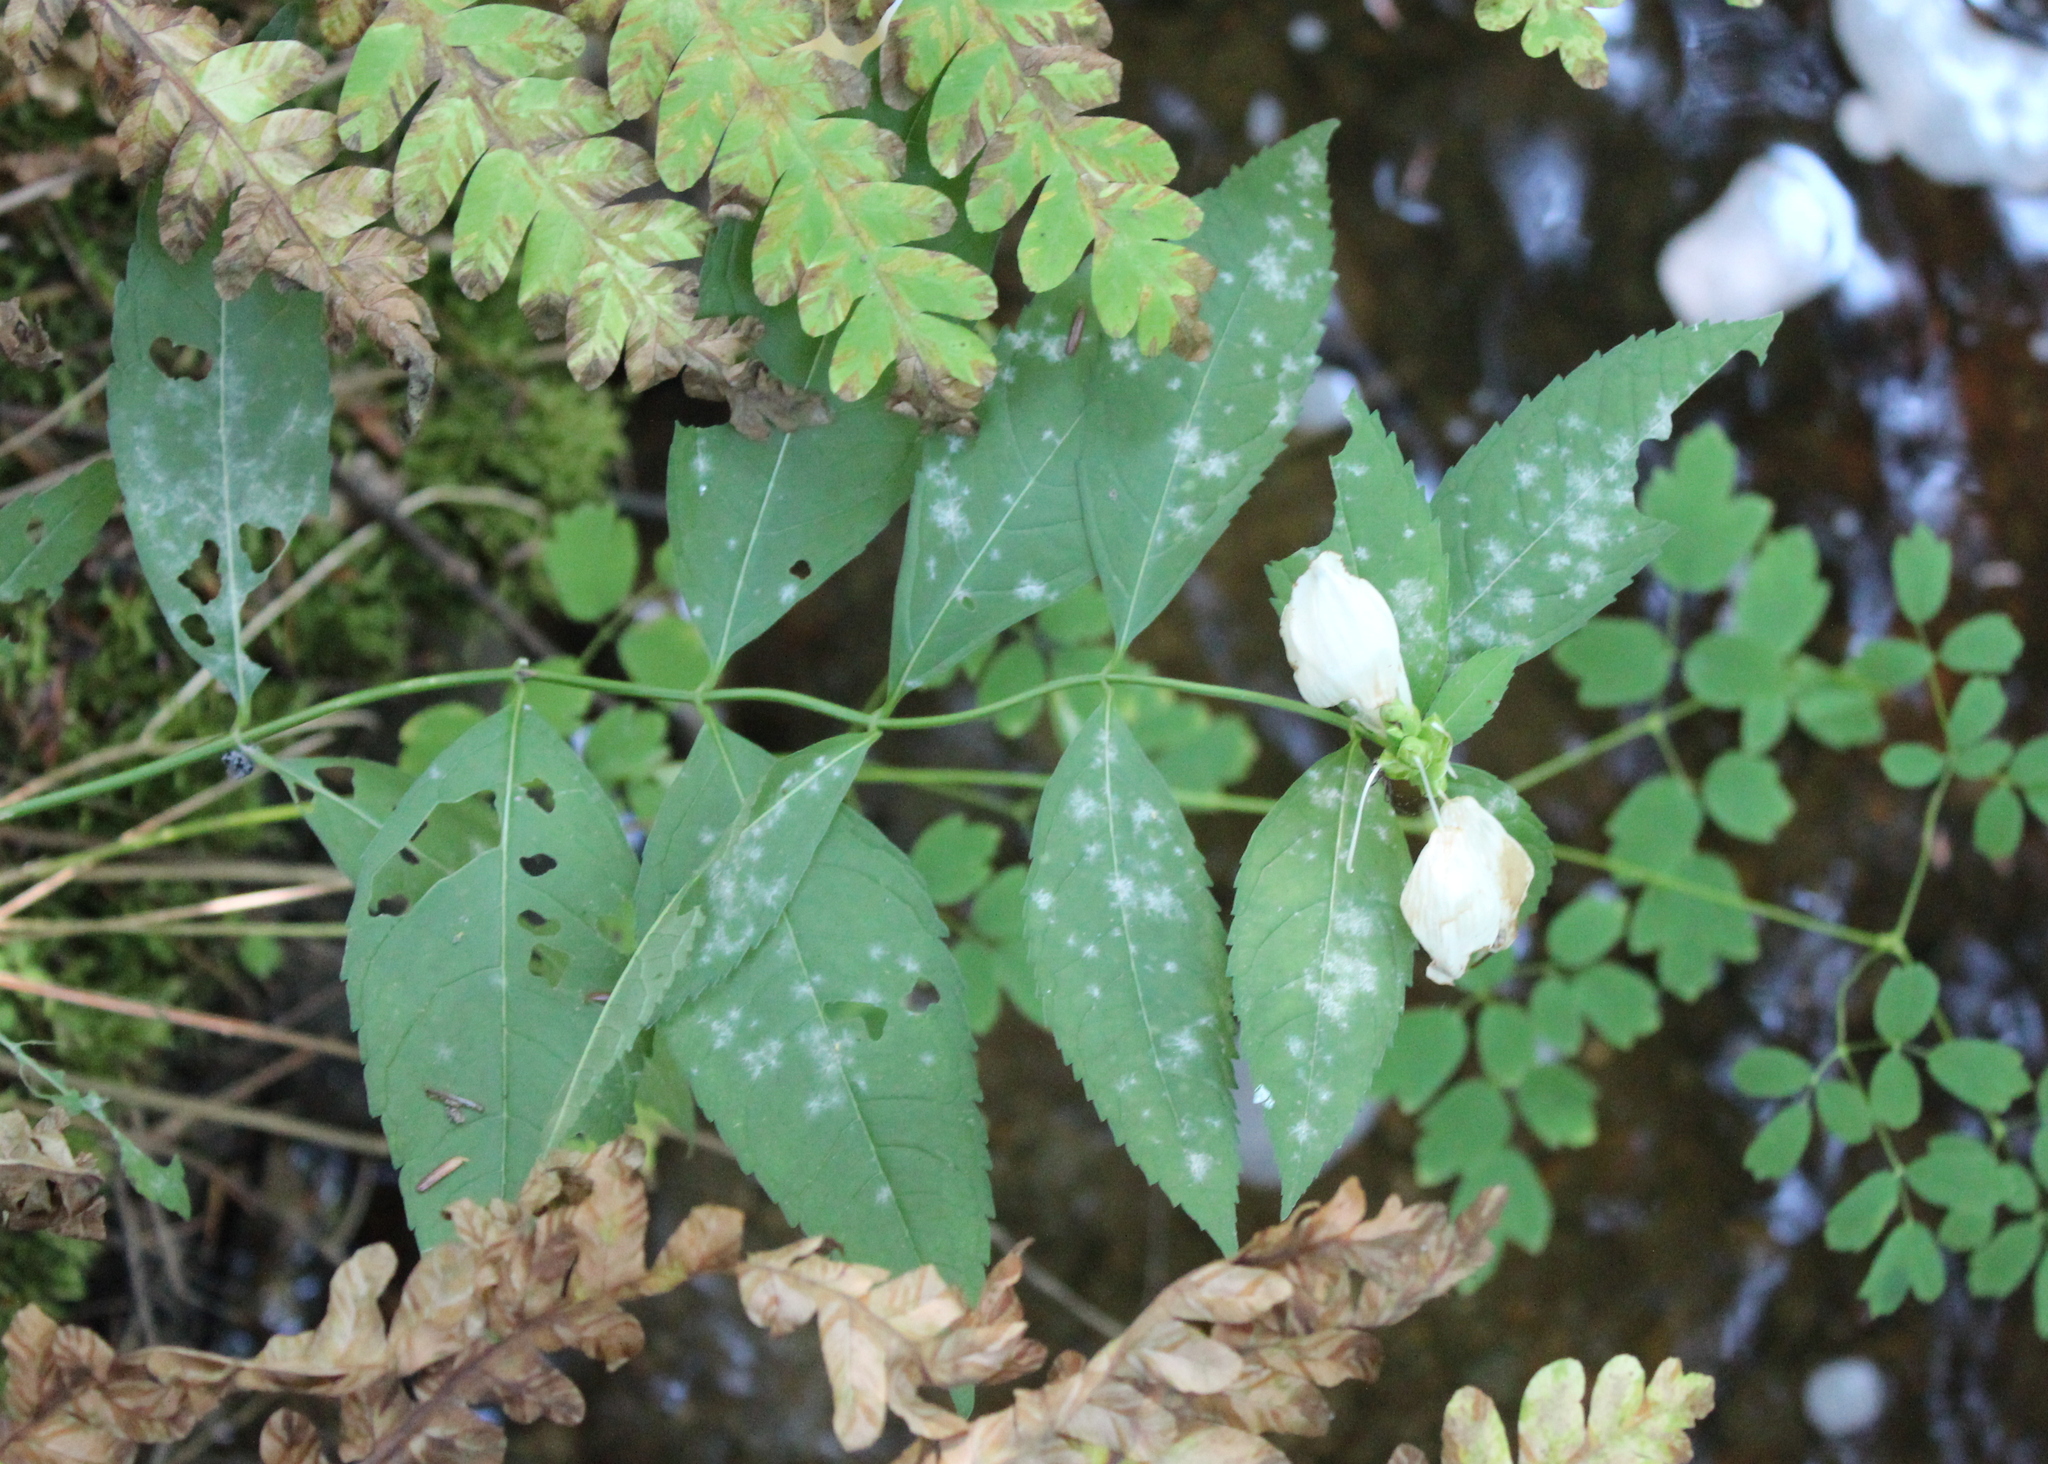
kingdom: Plantae
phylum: Tracheophyta
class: Magnoliopsida
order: Lamiales
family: Plantaginaceae
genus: Chelone
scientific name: Chelone glabra
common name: Snakehead
